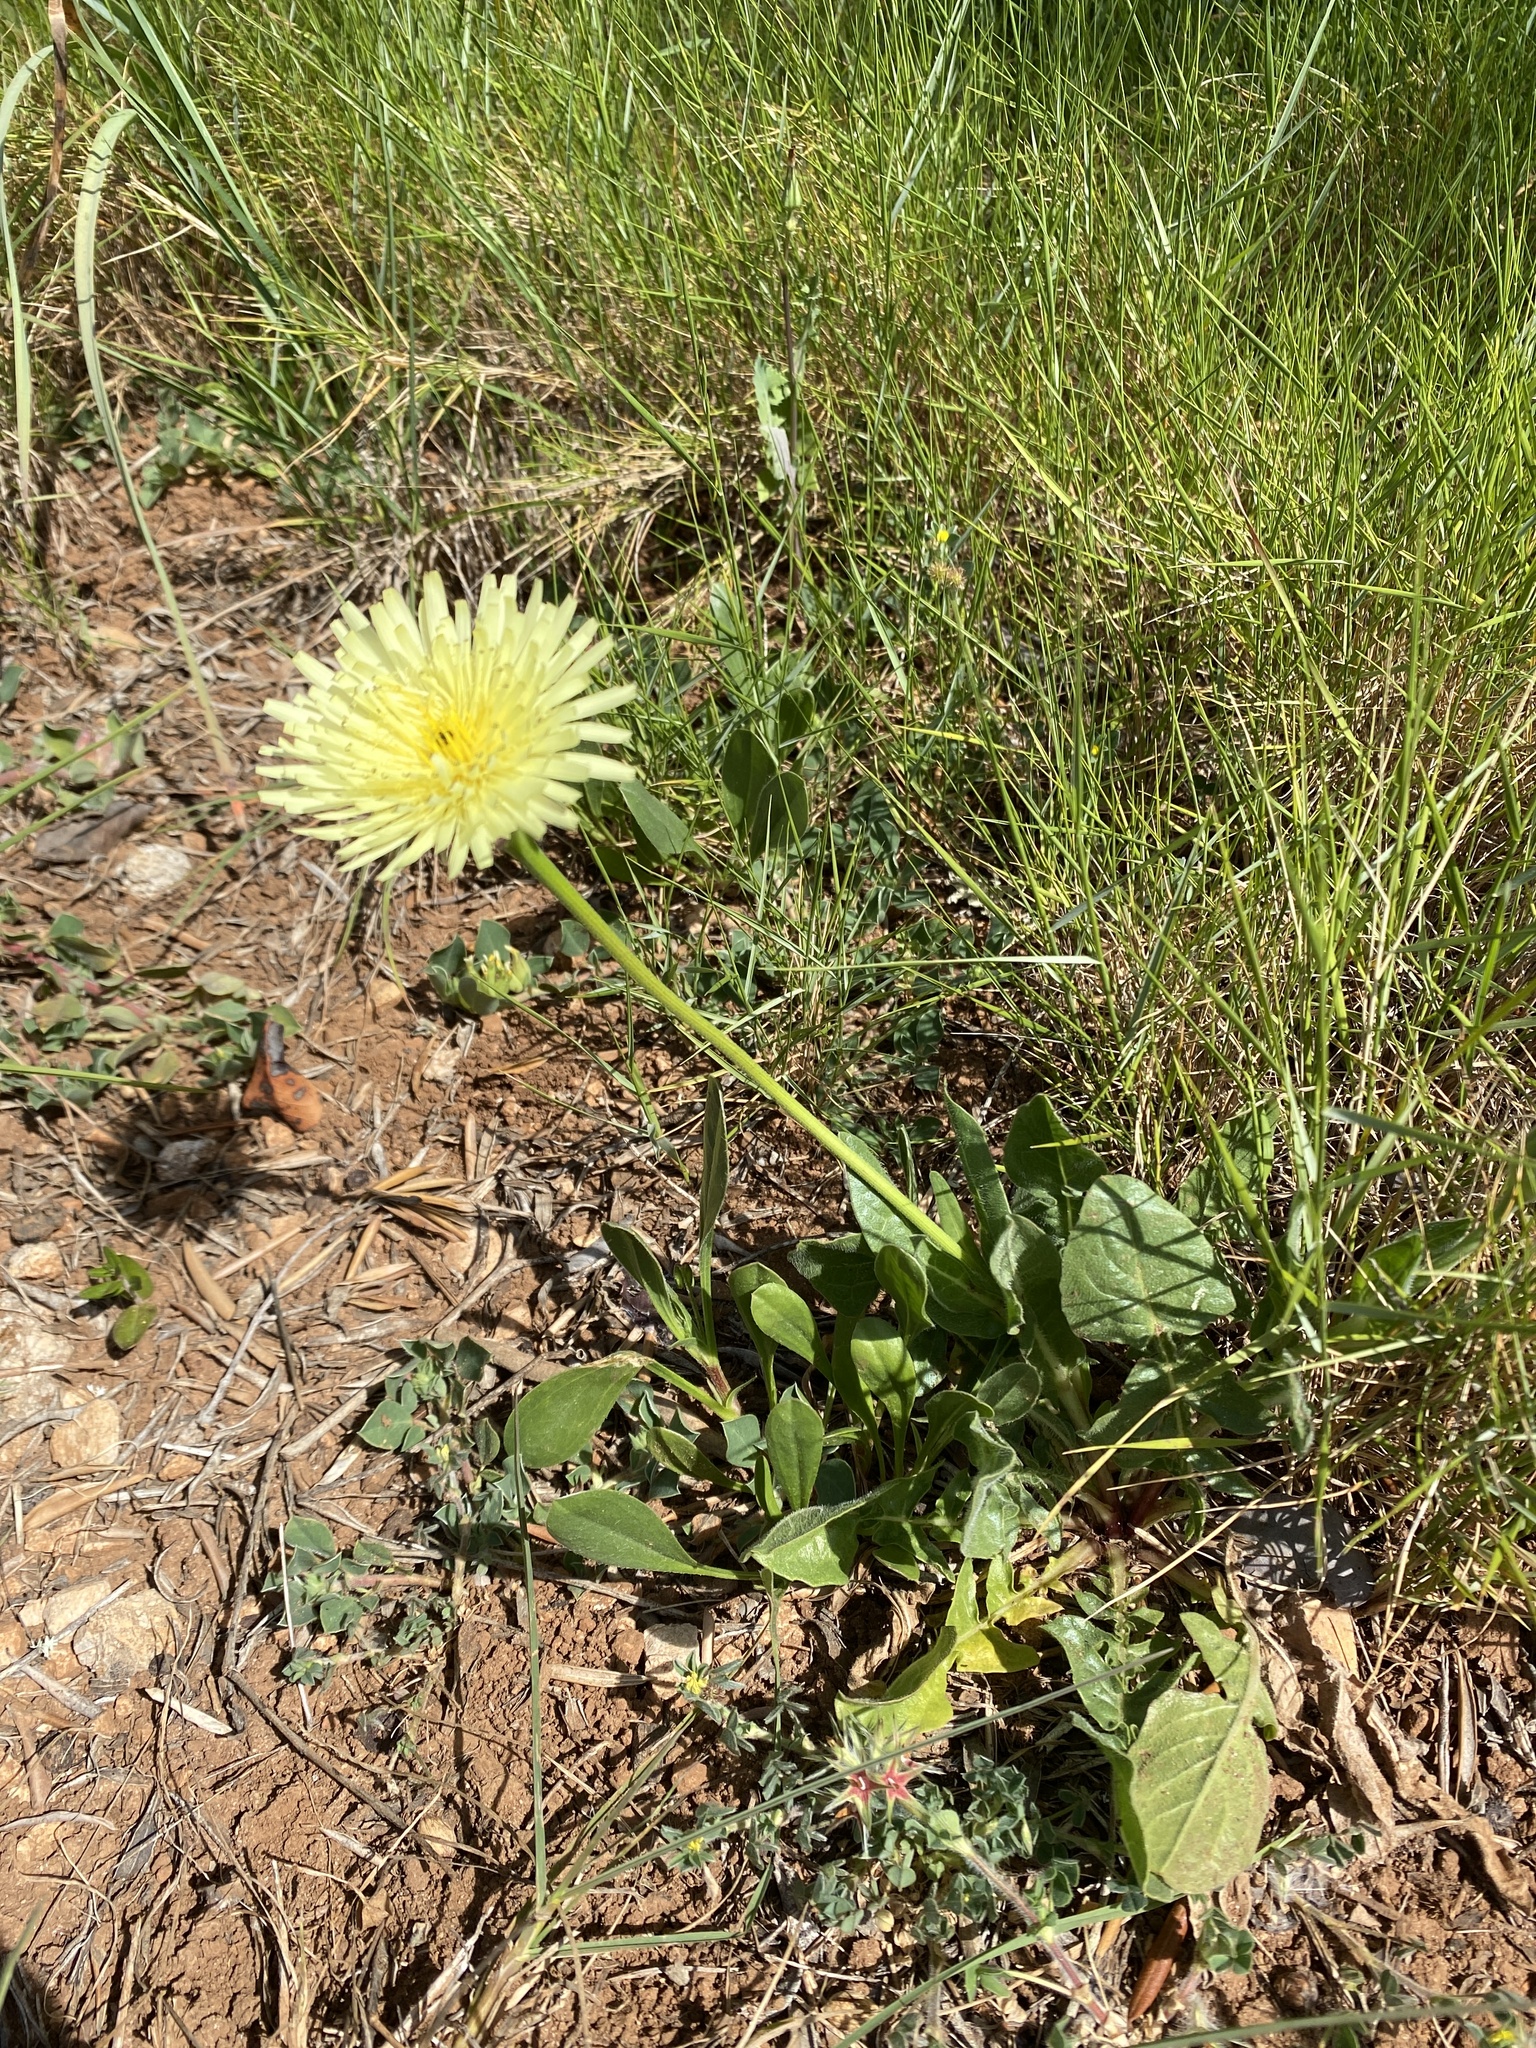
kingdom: Plantae
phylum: Tracheophyta
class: Magnoliopsida
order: Asterales
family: Asteraceae
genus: Urospermum
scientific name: Urospermum dalechampii
